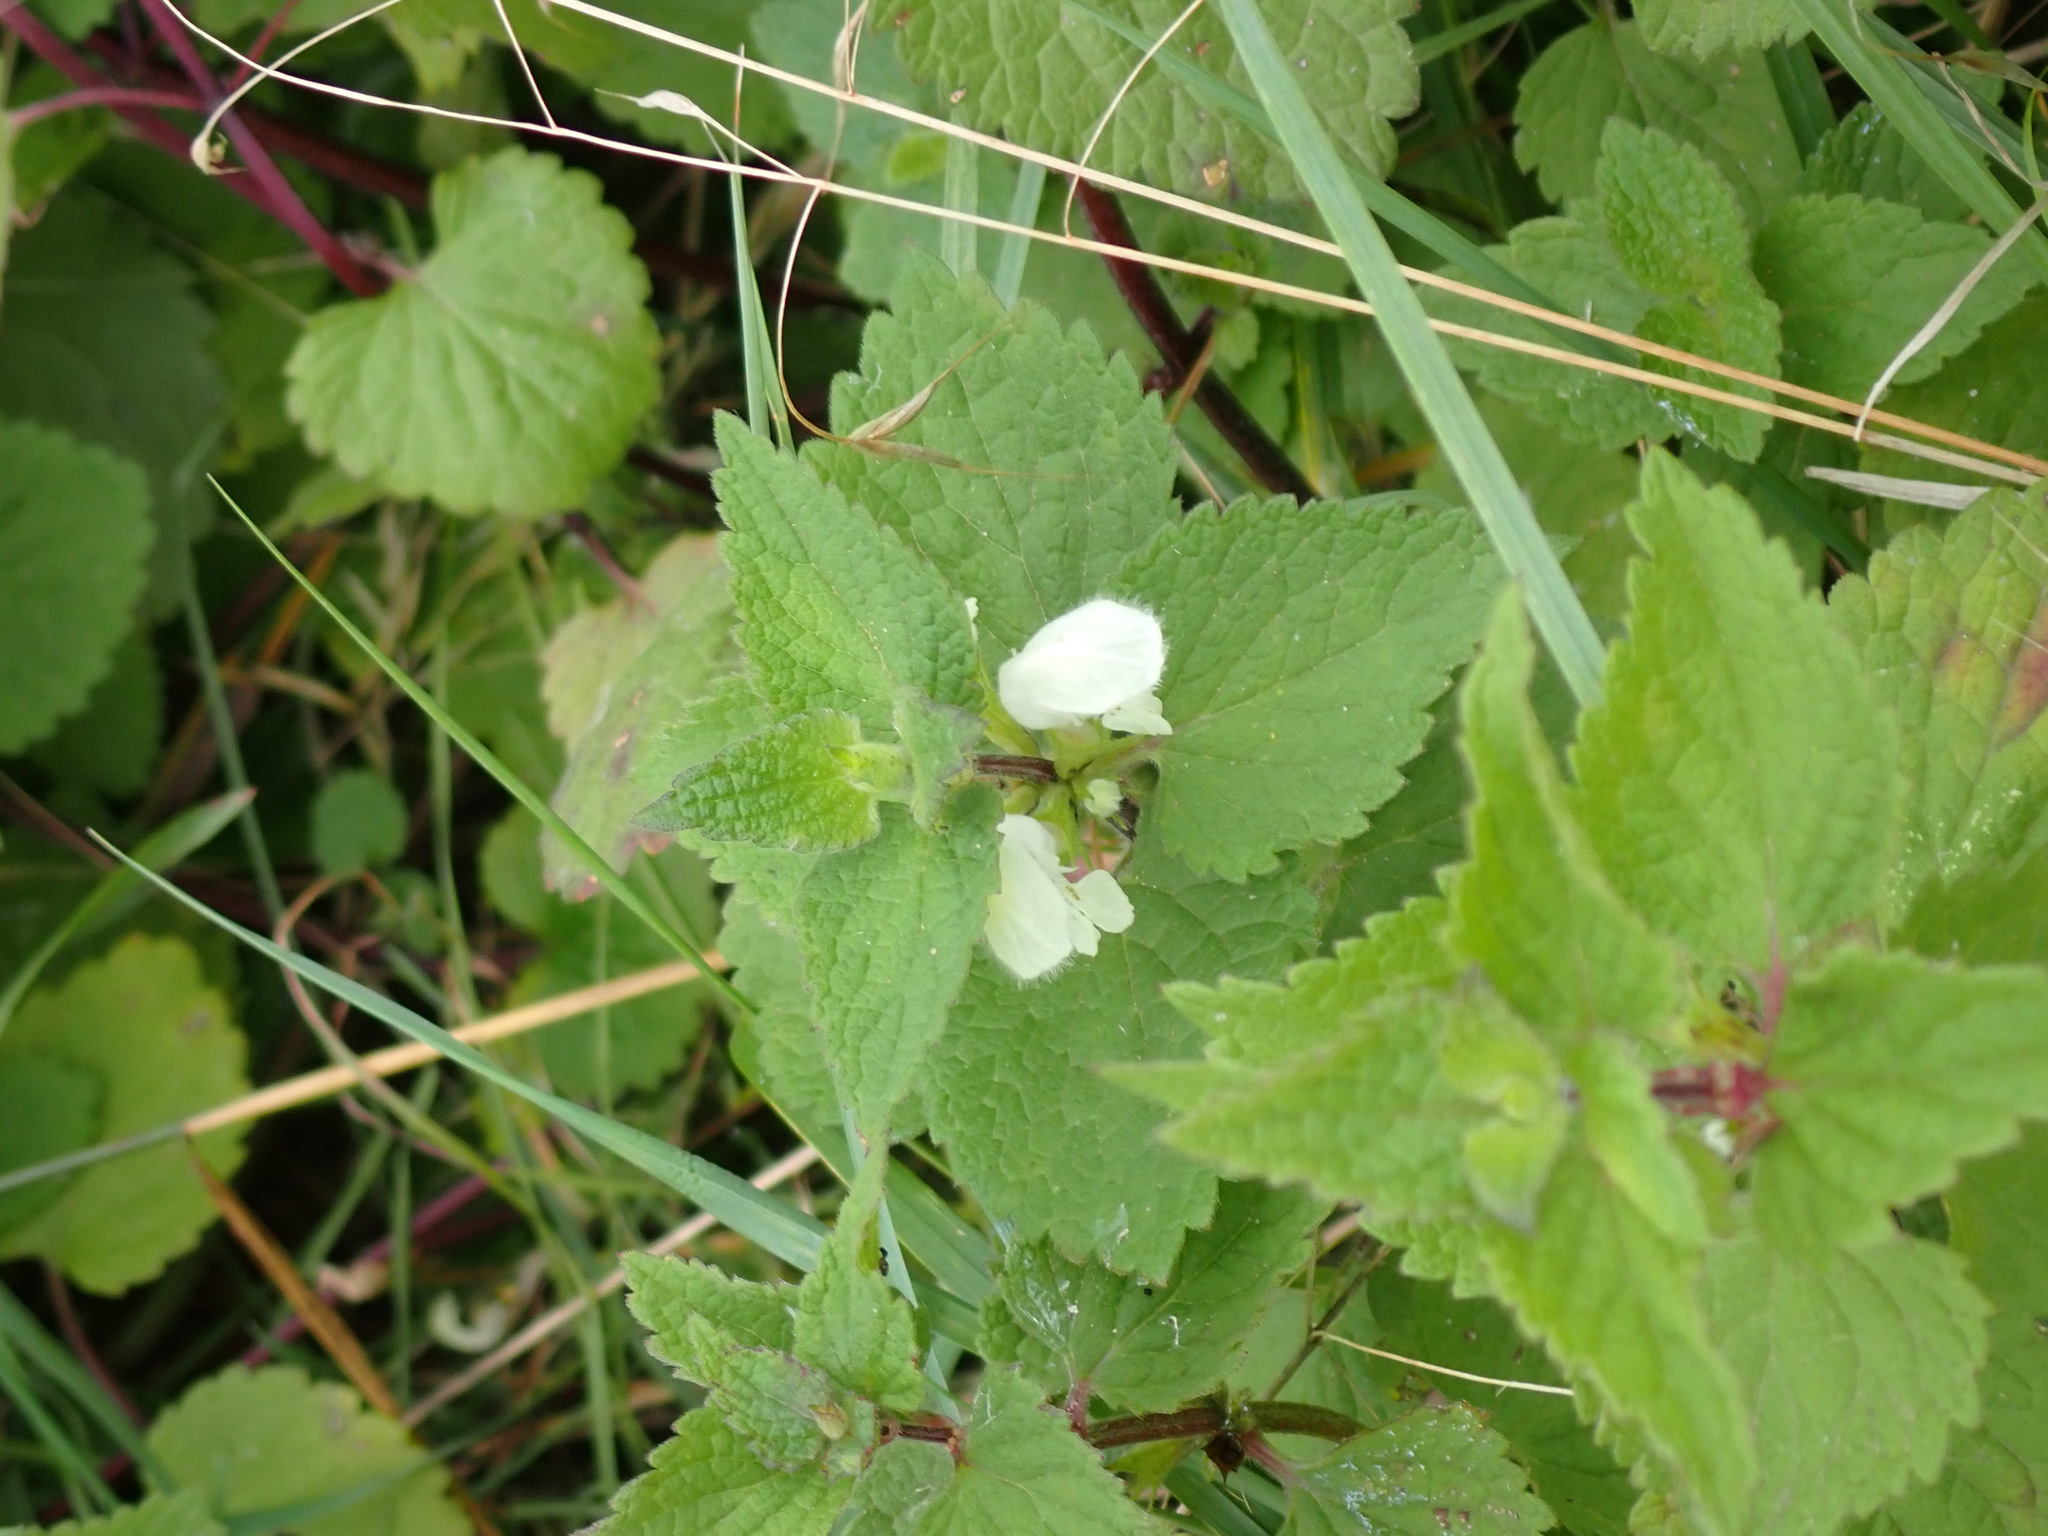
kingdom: Plantae
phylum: Tracheophyta
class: Magnoliopsida
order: Lamiales
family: Lamiaceae
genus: Lamium
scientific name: Lamium album
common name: White dead-nettle
